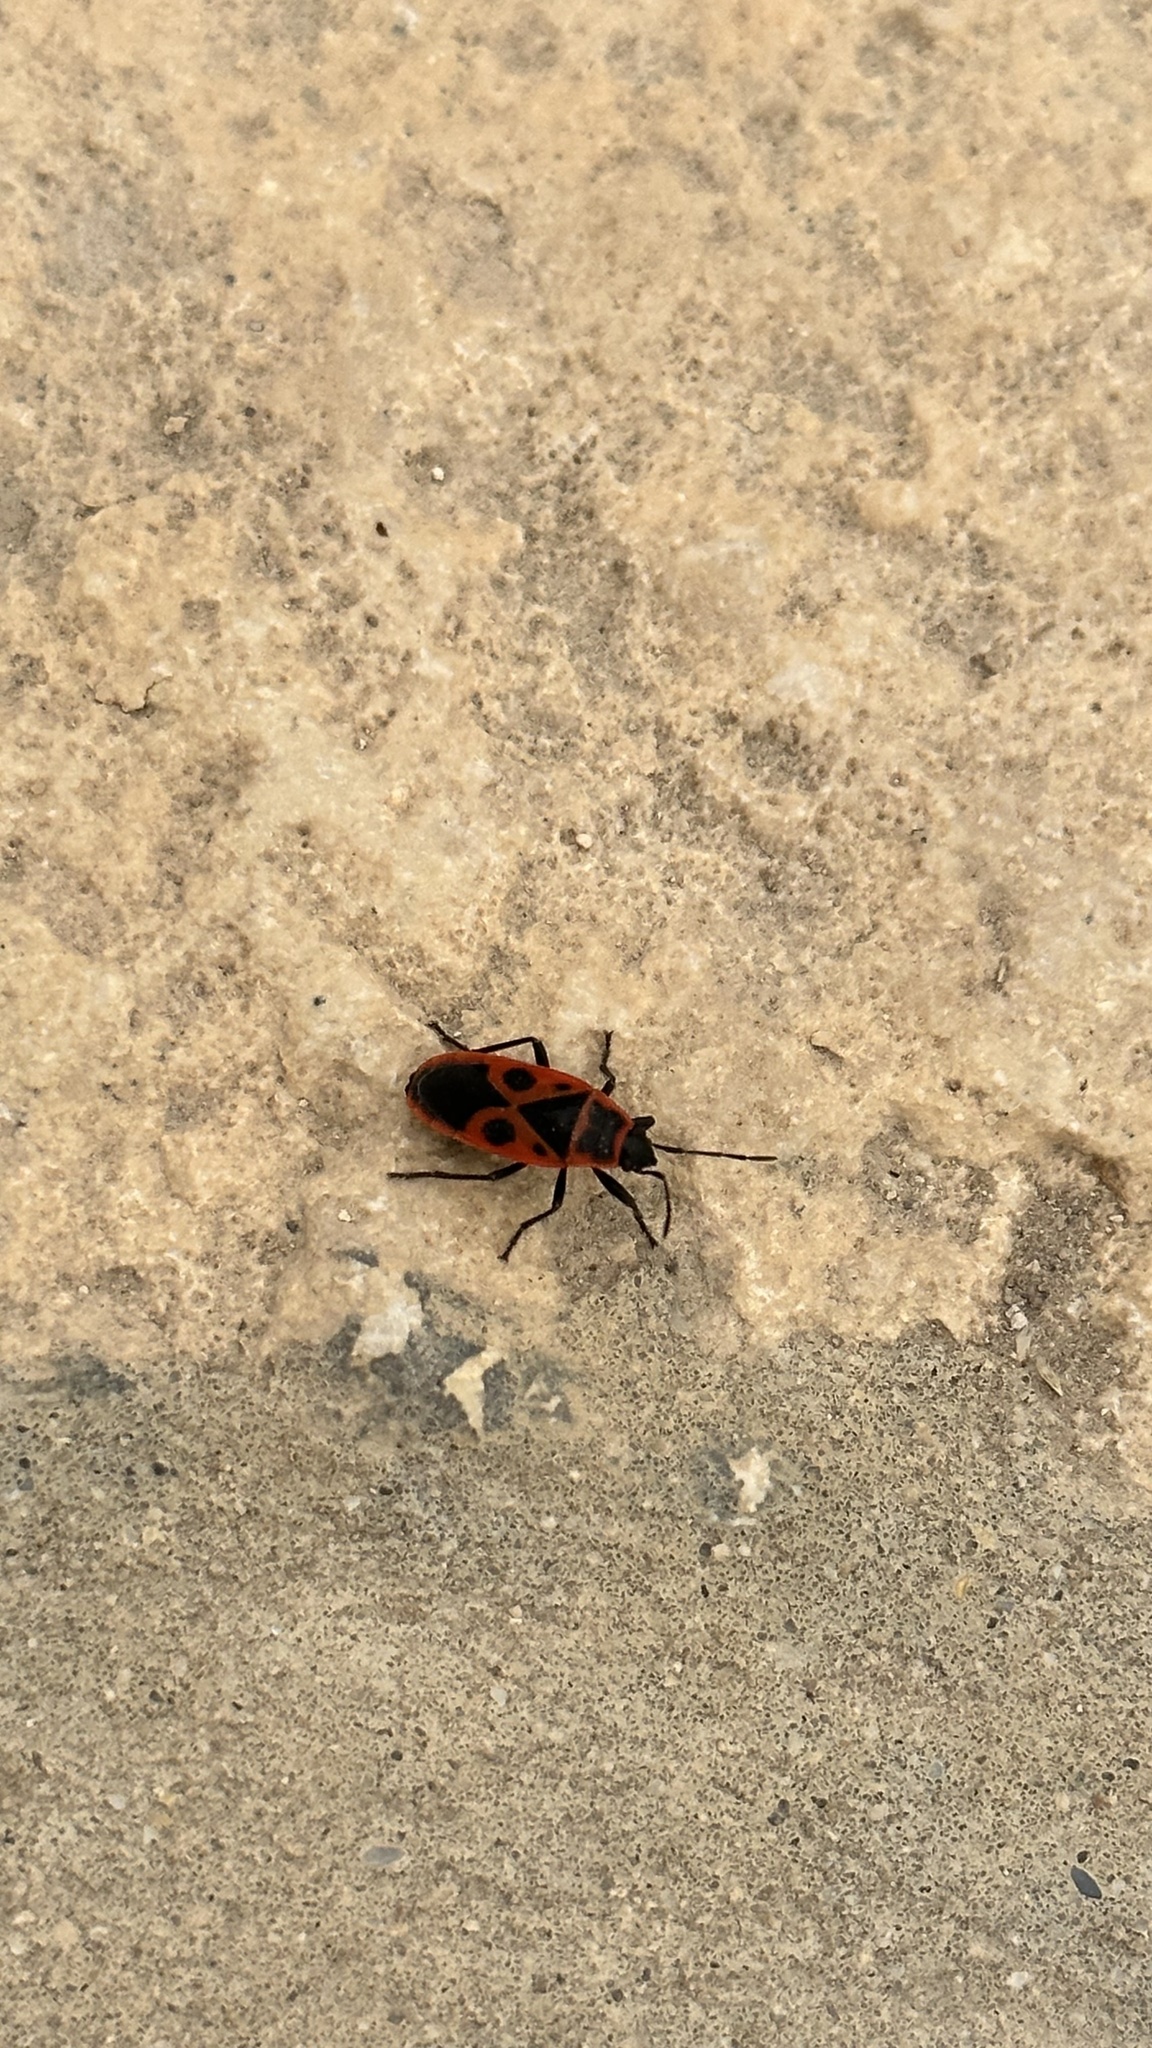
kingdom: Animalia
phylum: Arthropoda
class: Insecta
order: Hemiptera
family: Pyrrhocoridae
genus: Pyrrhocoris
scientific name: Pyrrhocoris apterus
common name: Firebug
